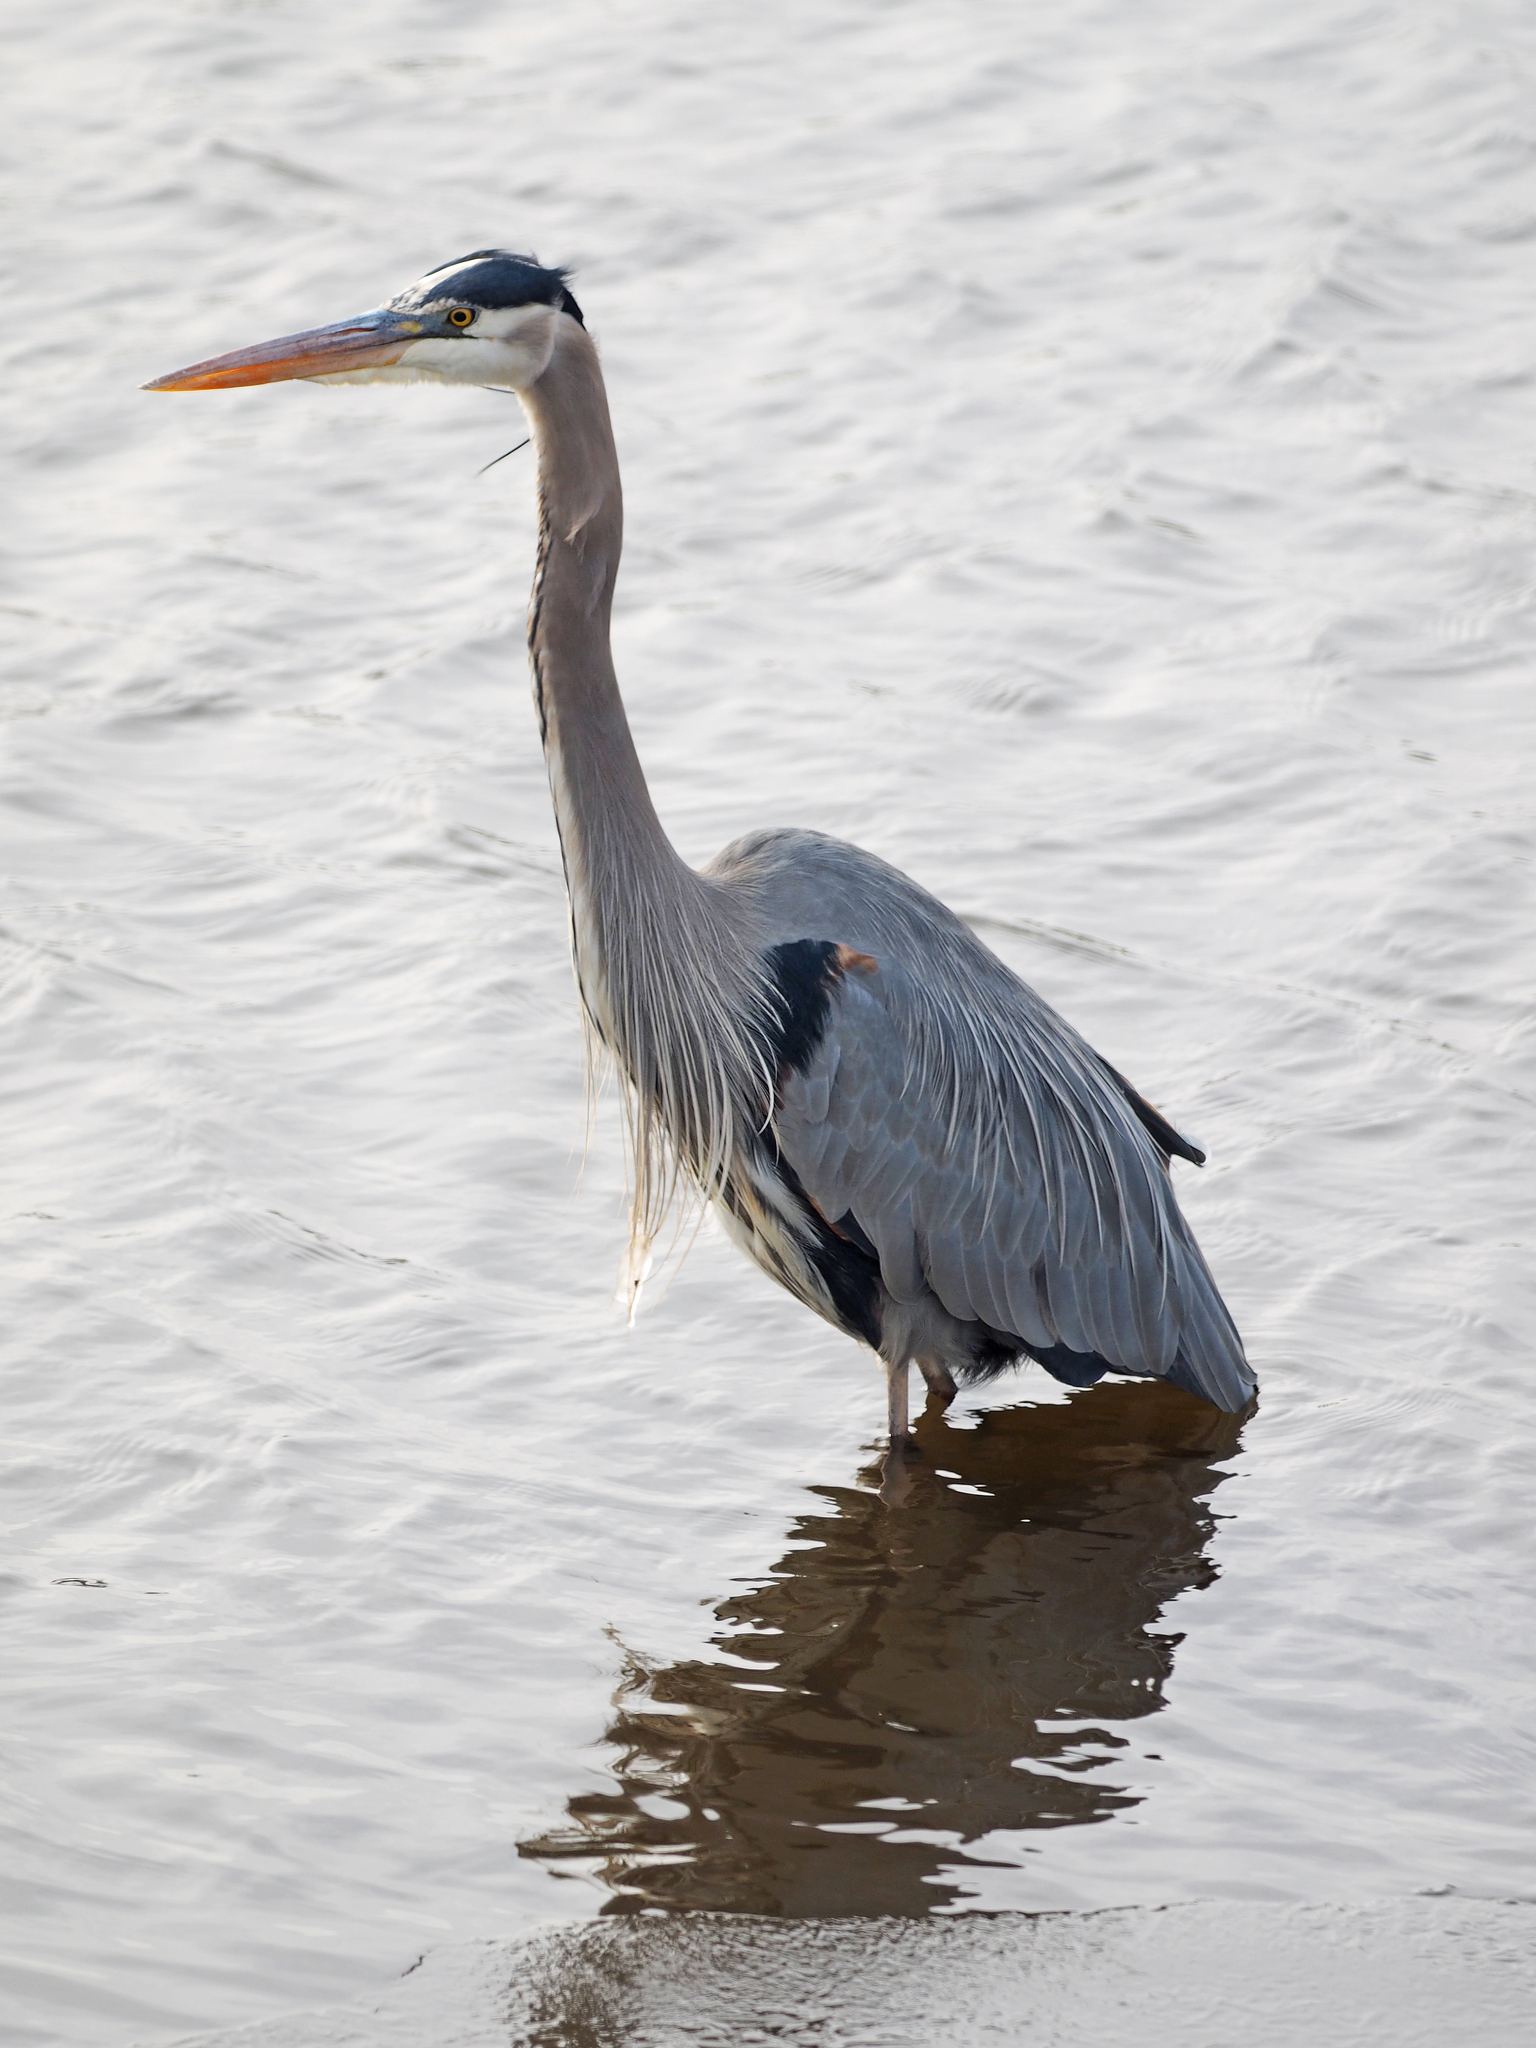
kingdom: Animalia
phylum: Chordata
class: Aves
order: Pelecaniformes
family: Ardeidae
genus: Ardea
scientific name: Ardea herodias
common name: Great blue heron
